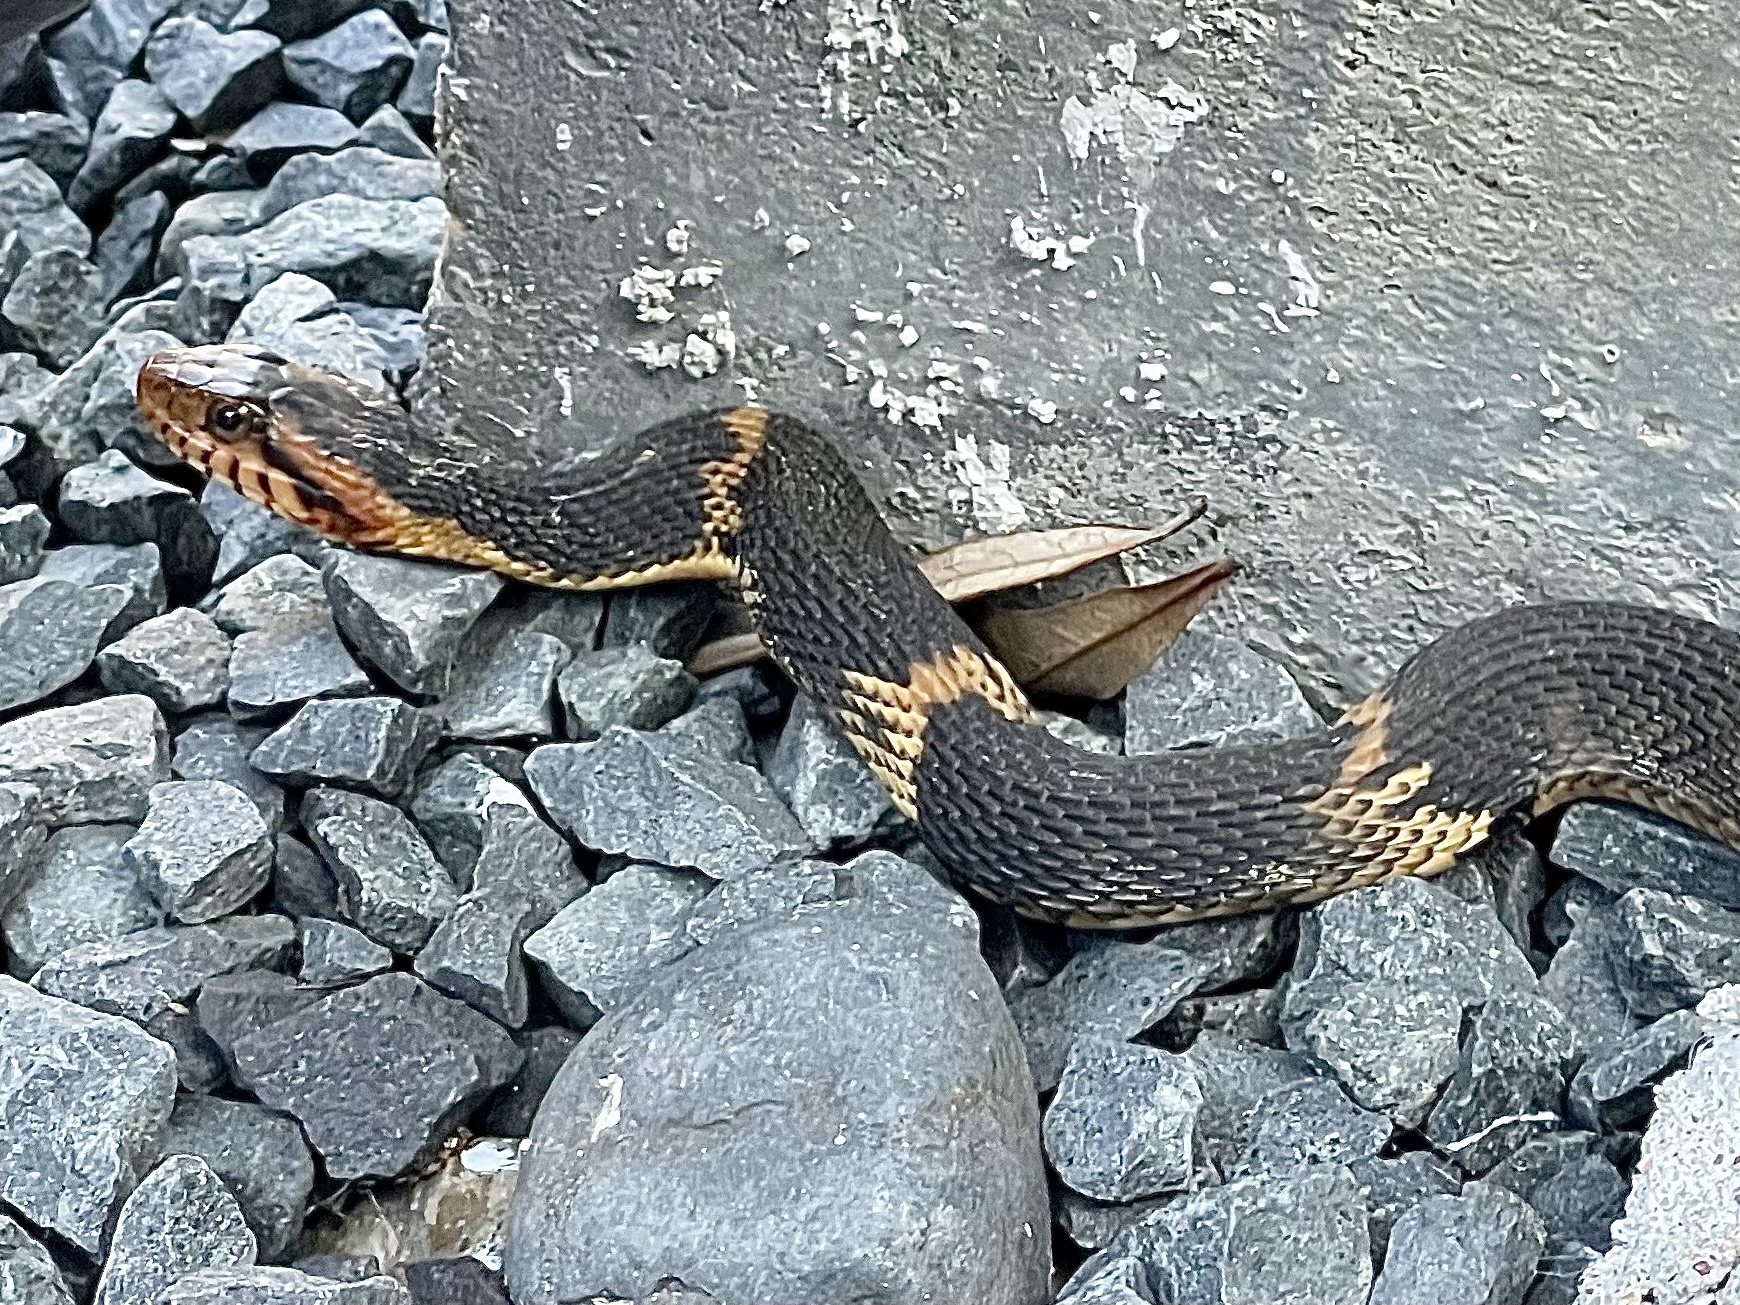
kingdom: Animalia
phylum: Chordata
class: Squamata
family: Colubridae
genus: Nerodia
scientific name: Nerodia fasciata
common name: Southern water snake
